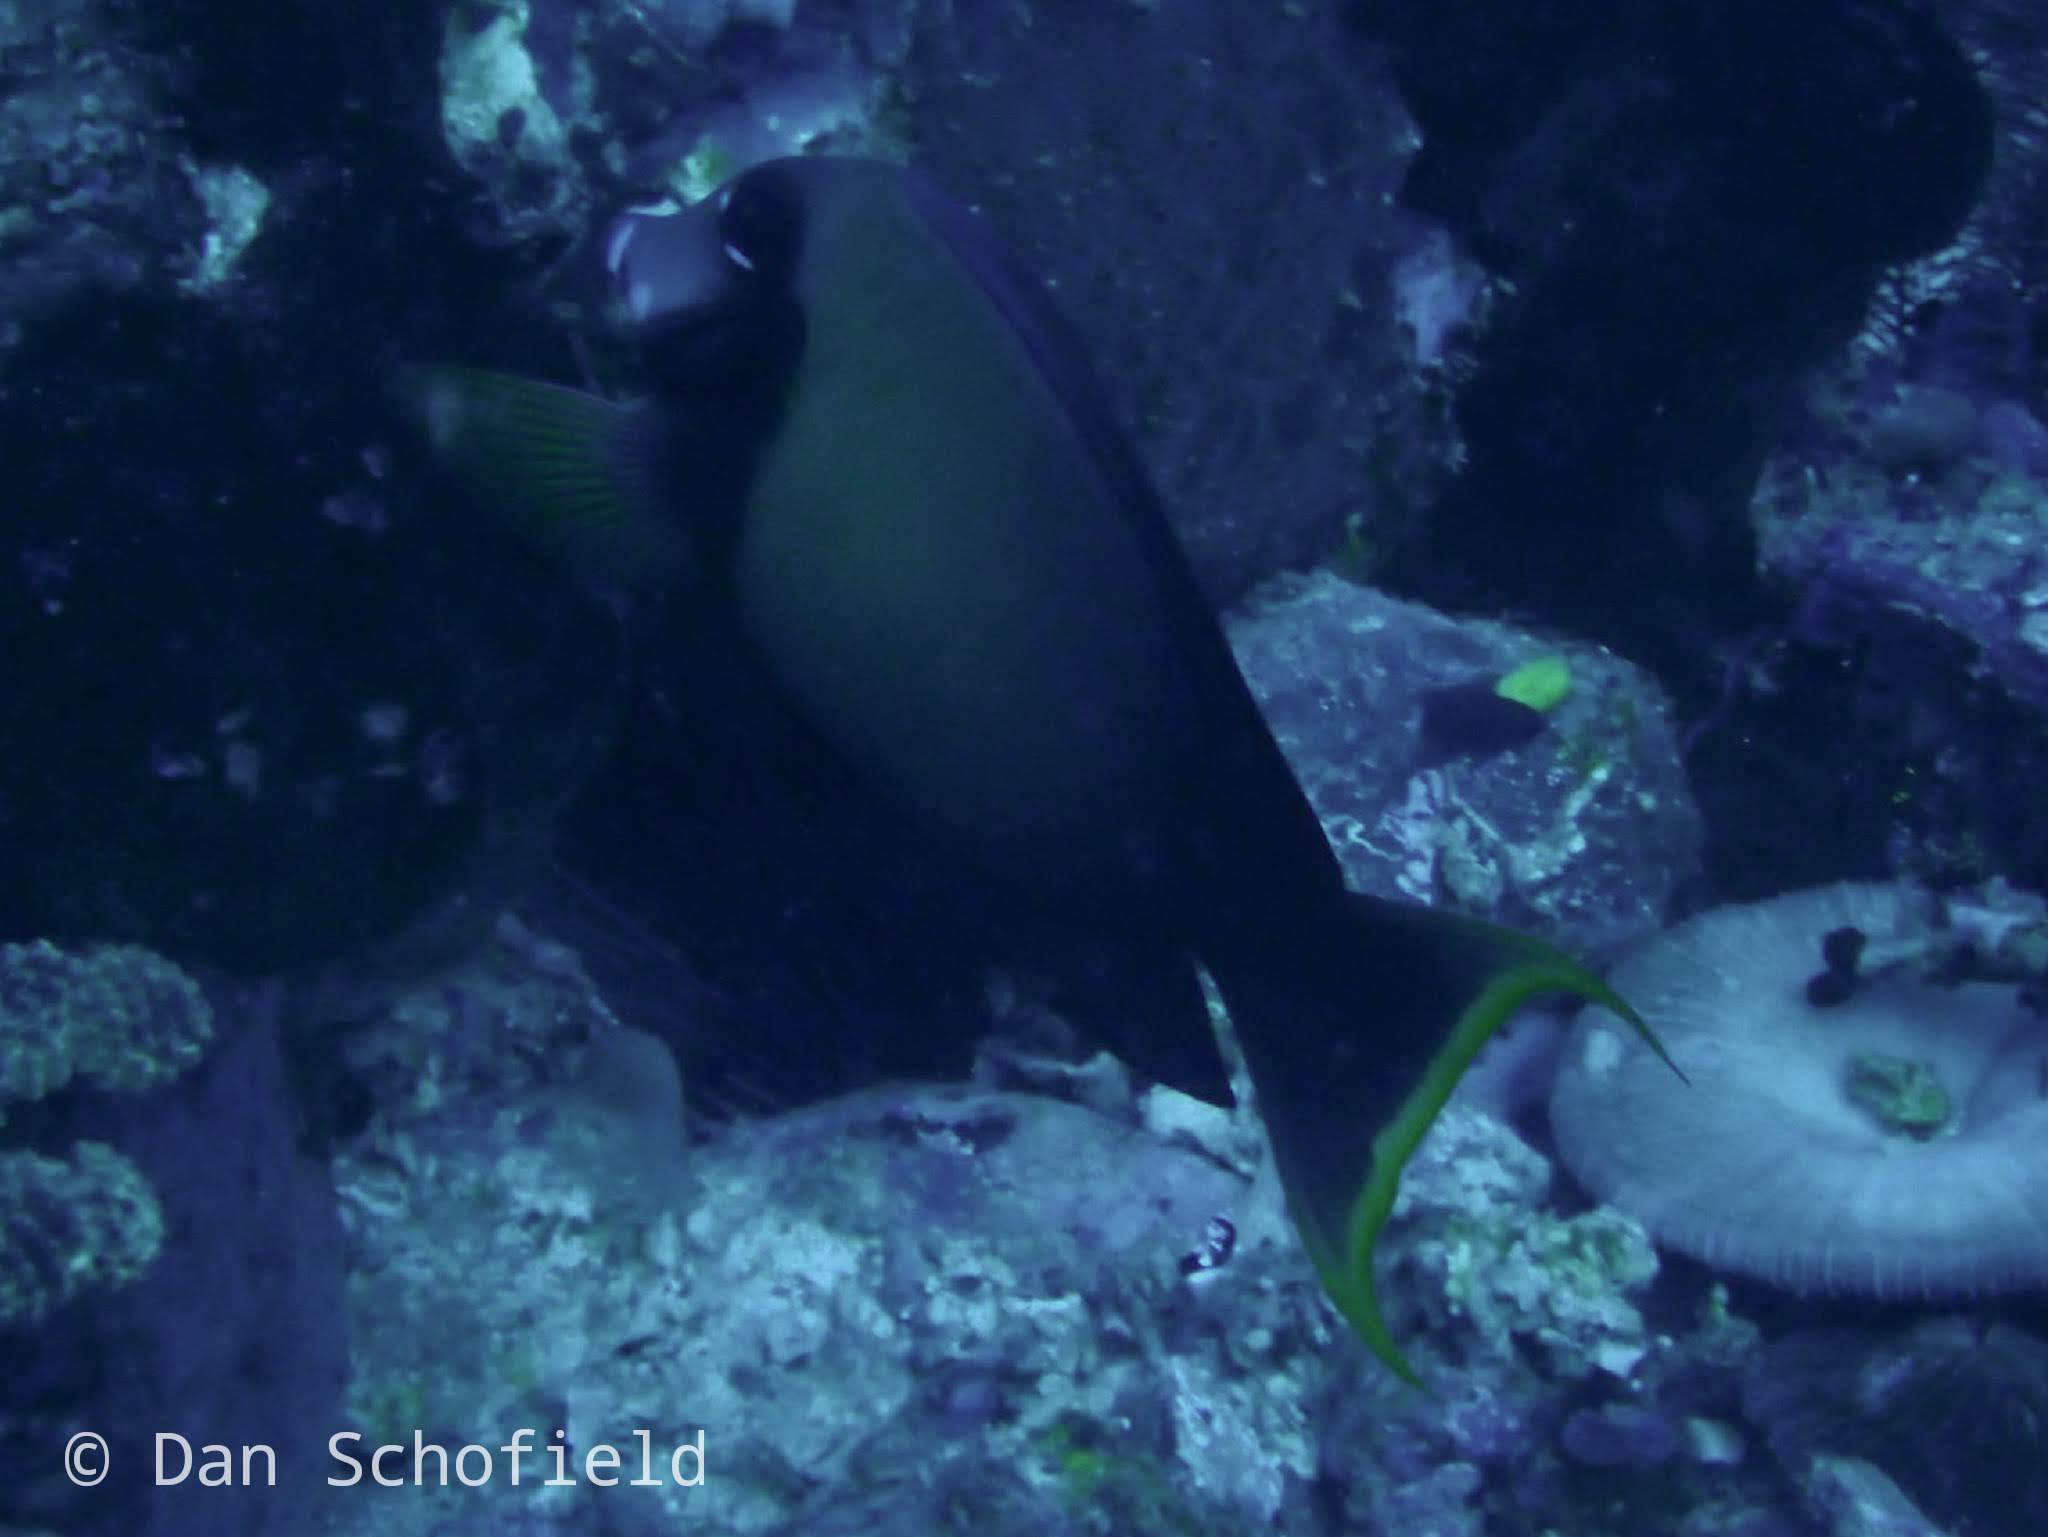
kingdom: Animalia
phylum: Chordata
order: Perciformes
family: Acanthuridae
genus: Acanthurus
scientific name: Acanthurus pyroferus
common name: Chocolate surgeonfish
